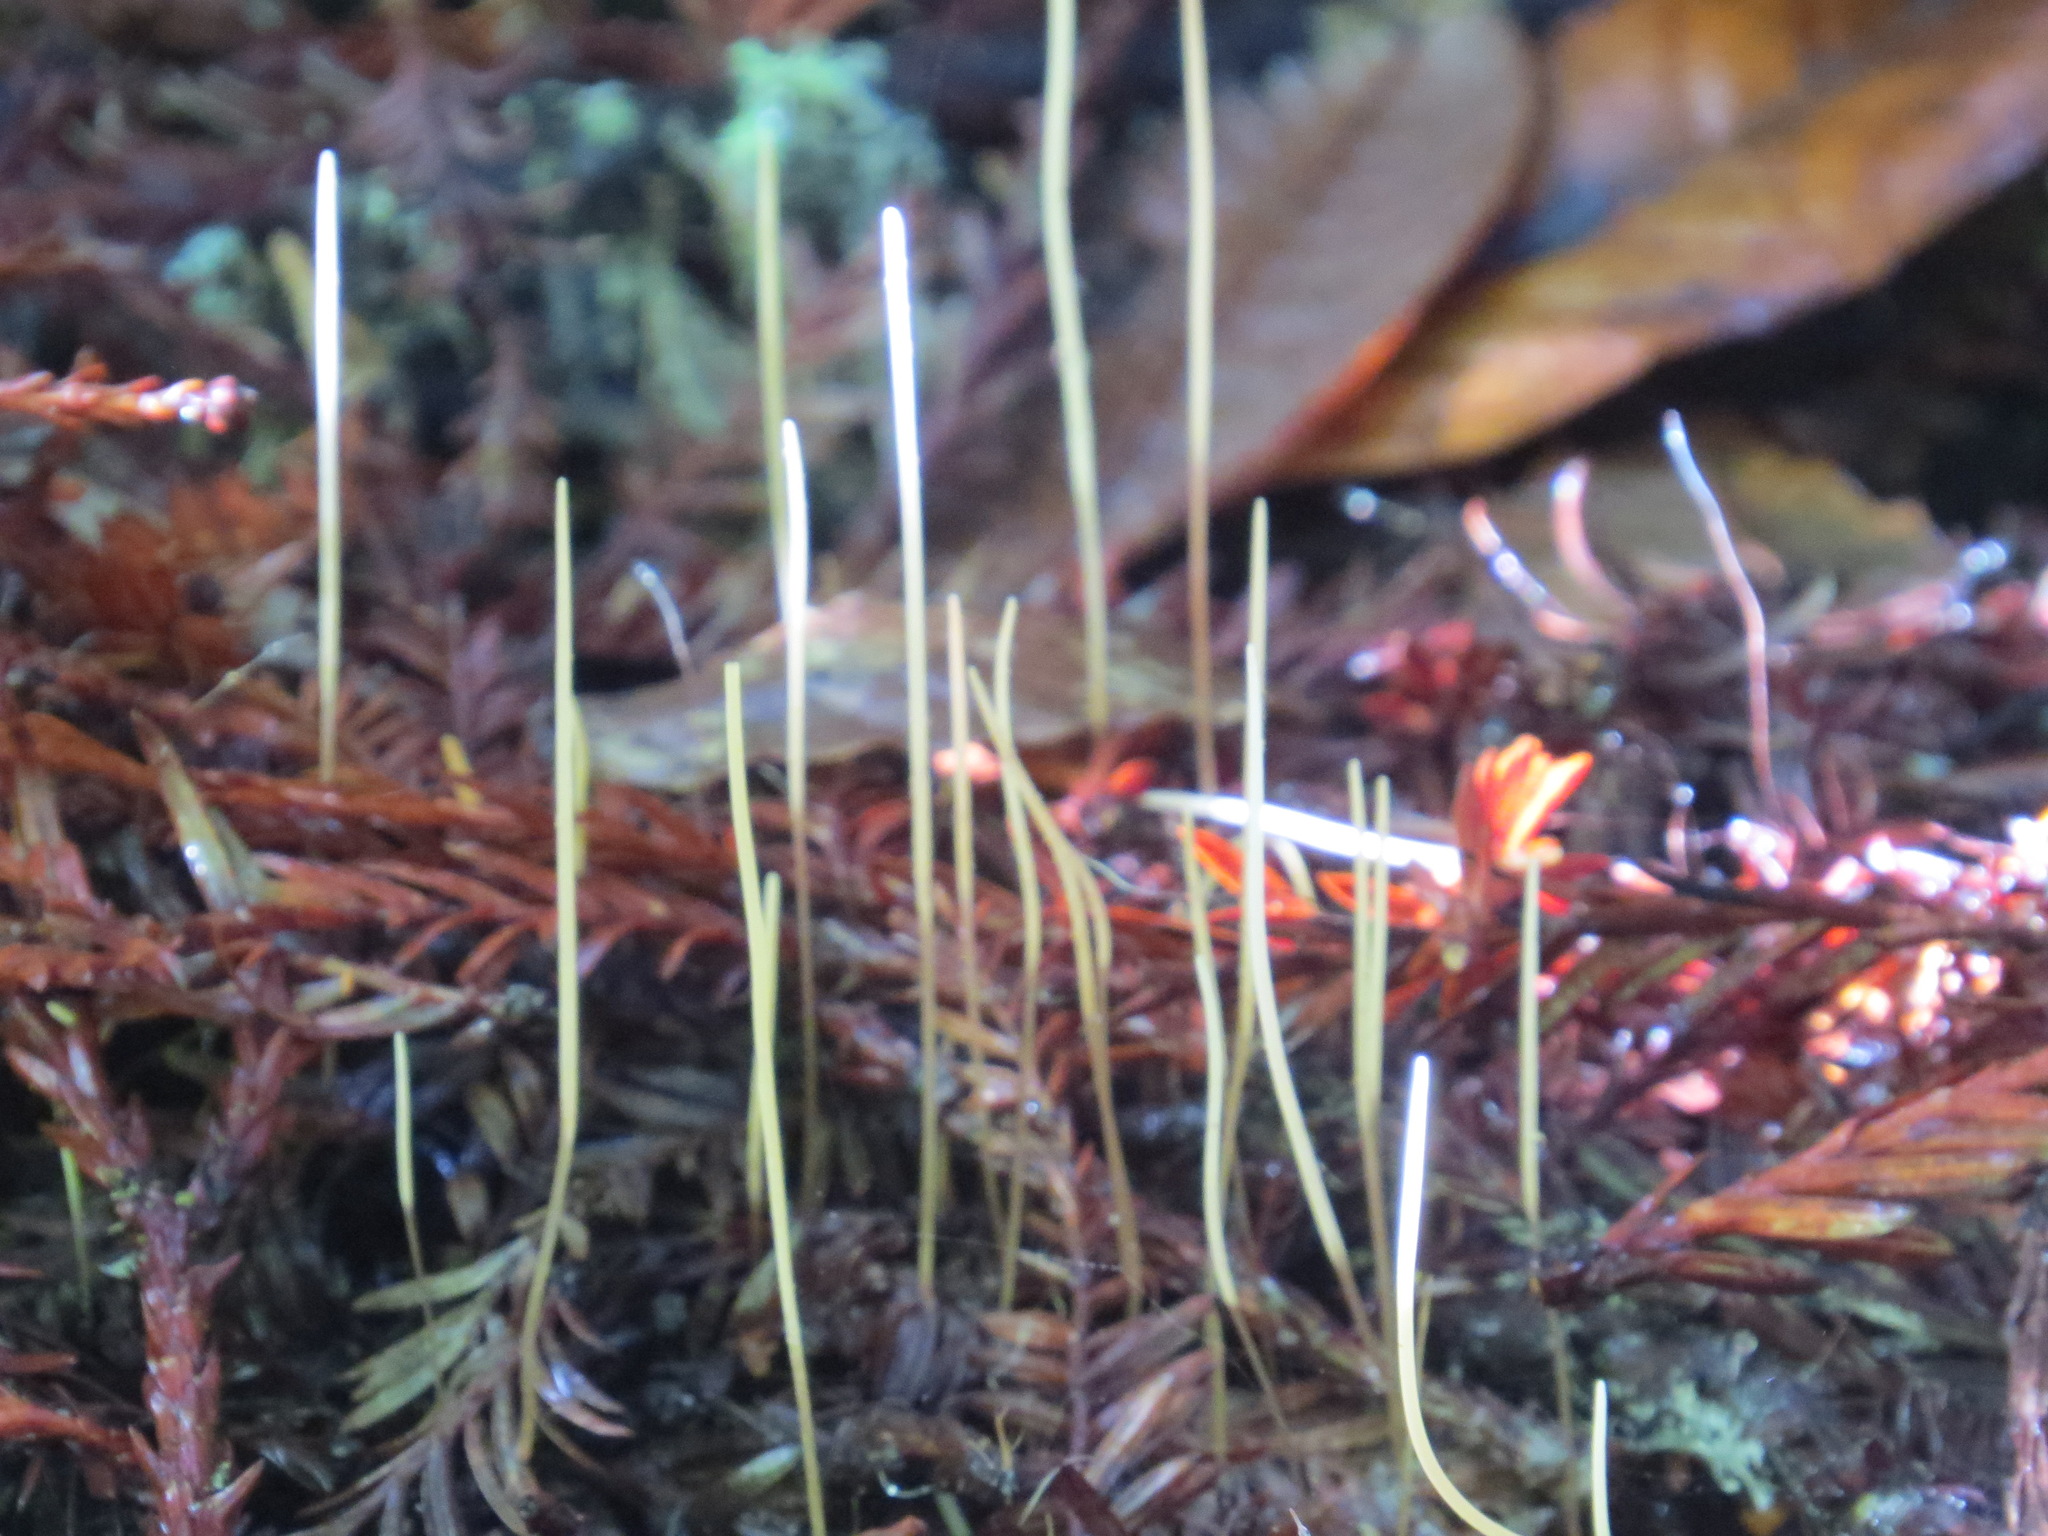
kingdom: Fungi
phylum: Basidiomycota
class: Agaricomycetes
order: Agaricales
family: Typhulaceae
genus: Typhula
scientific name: Typhula juncea
